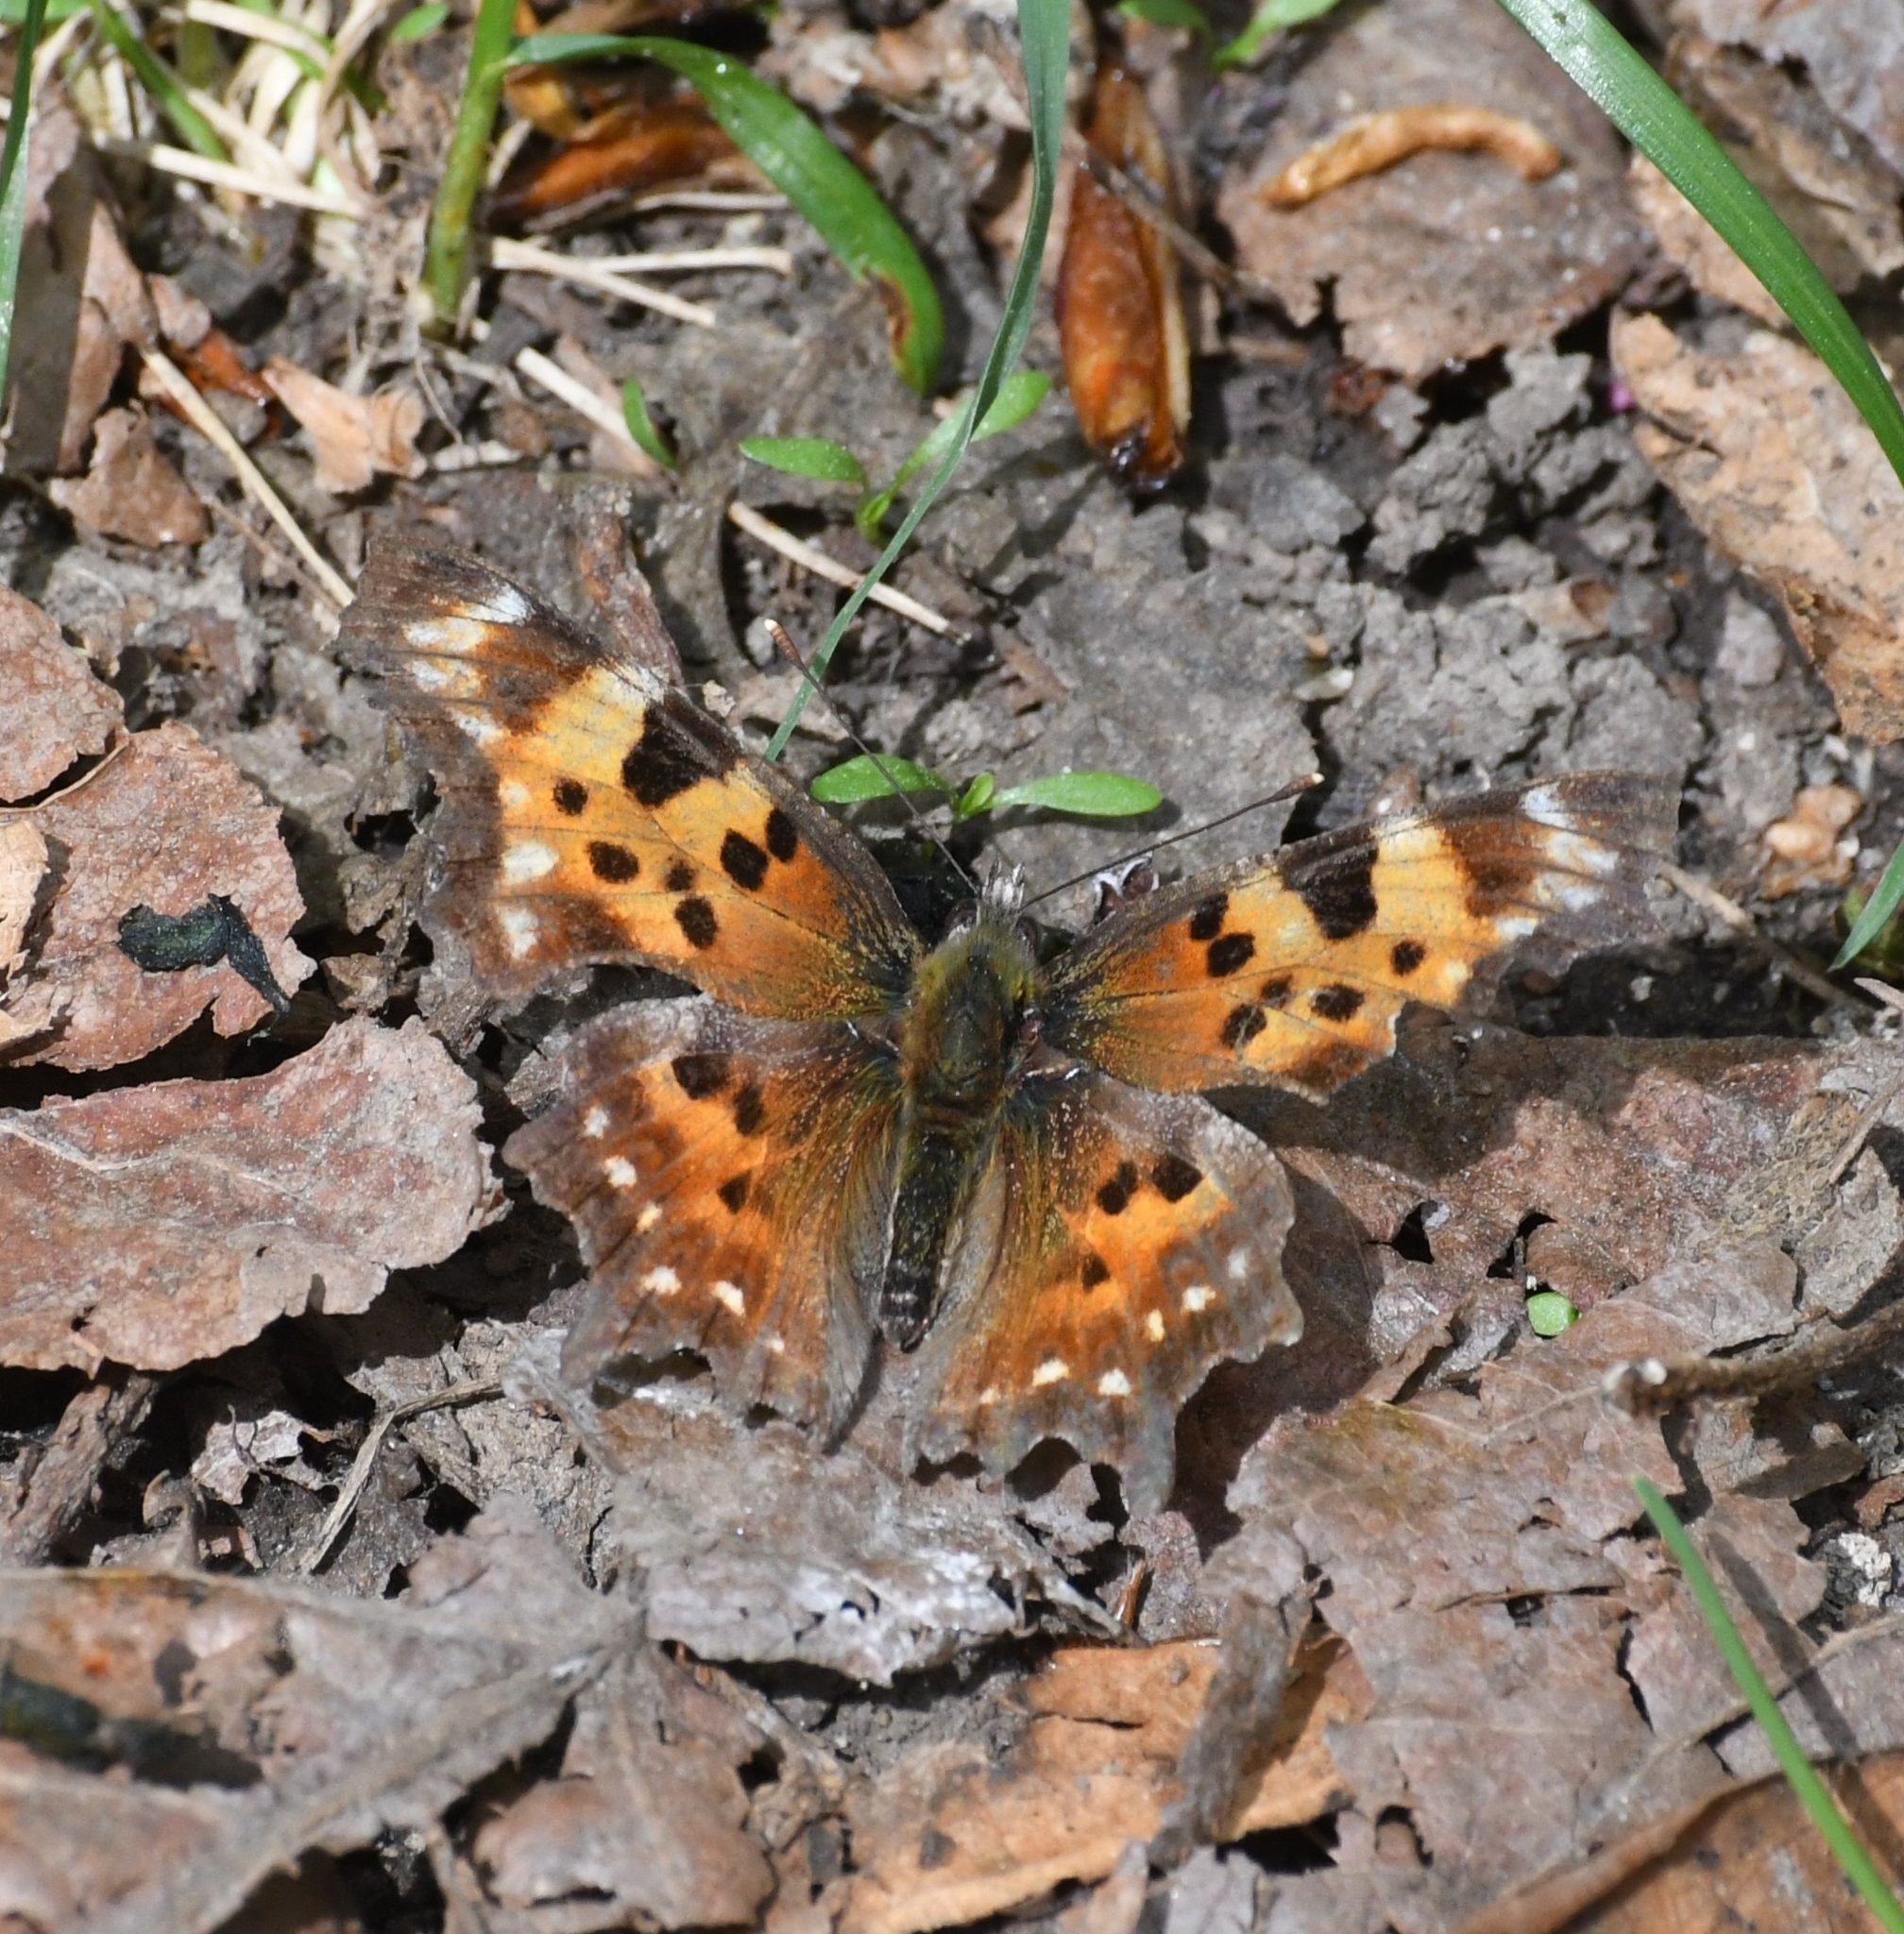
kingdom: Animalia
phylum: Arthropoda
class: Insecta
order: Lepidoptera
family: Nymphalidae
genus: Polygonia
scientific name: Polygonia faunus
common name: Green comma
